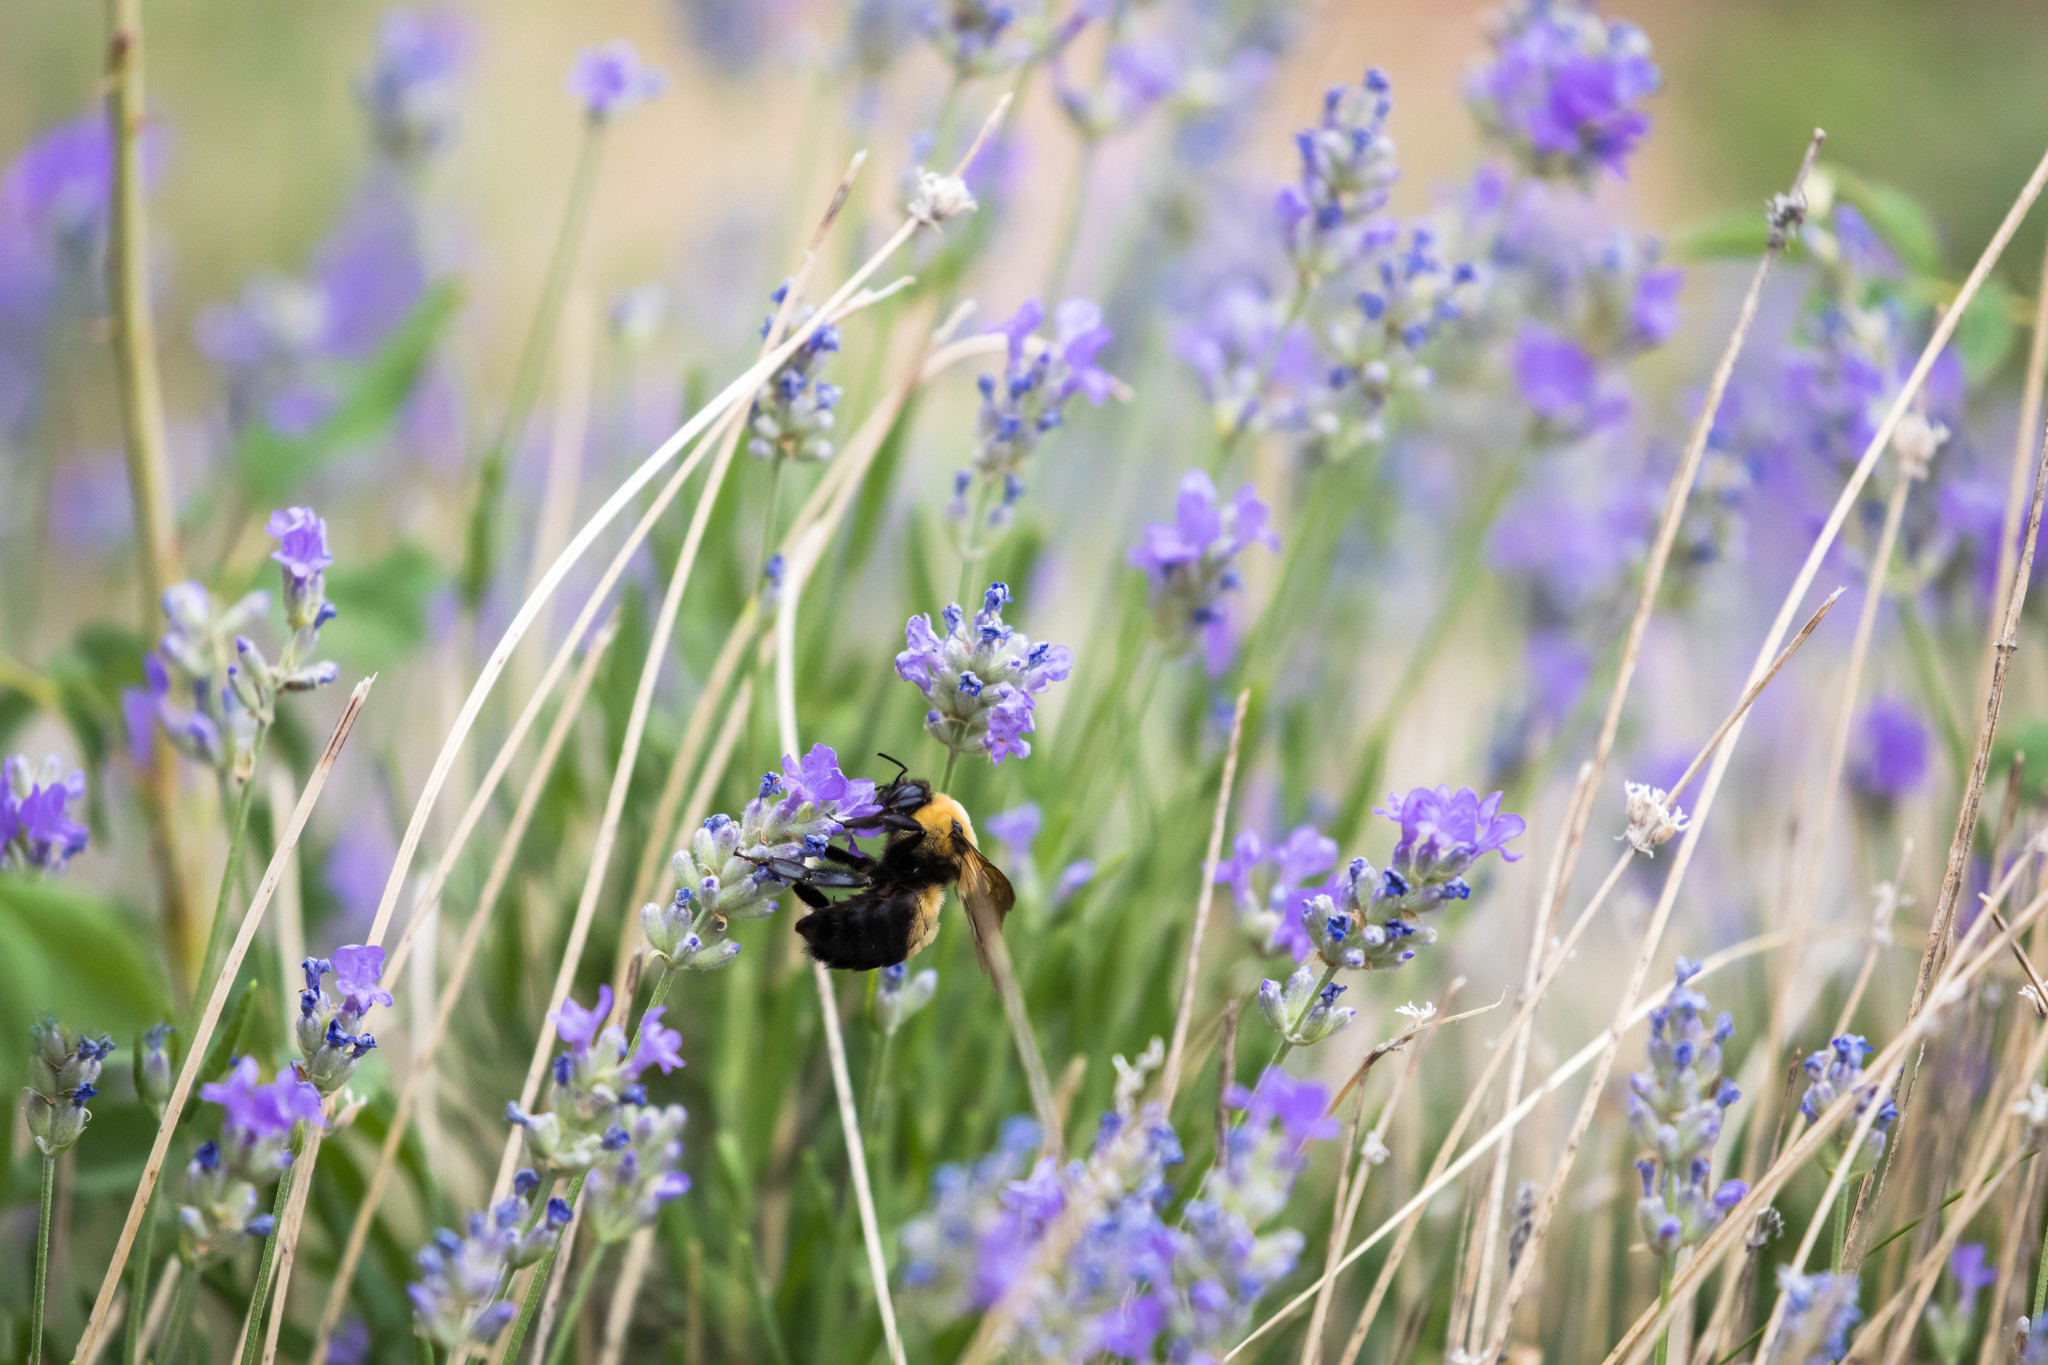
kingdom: Animalia
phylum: Arthropoda
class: Insecta
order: Hymenoptera
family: Apidae
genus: Bombus
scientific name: Bombus griseocollis
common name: Brown-belted bumble bee
